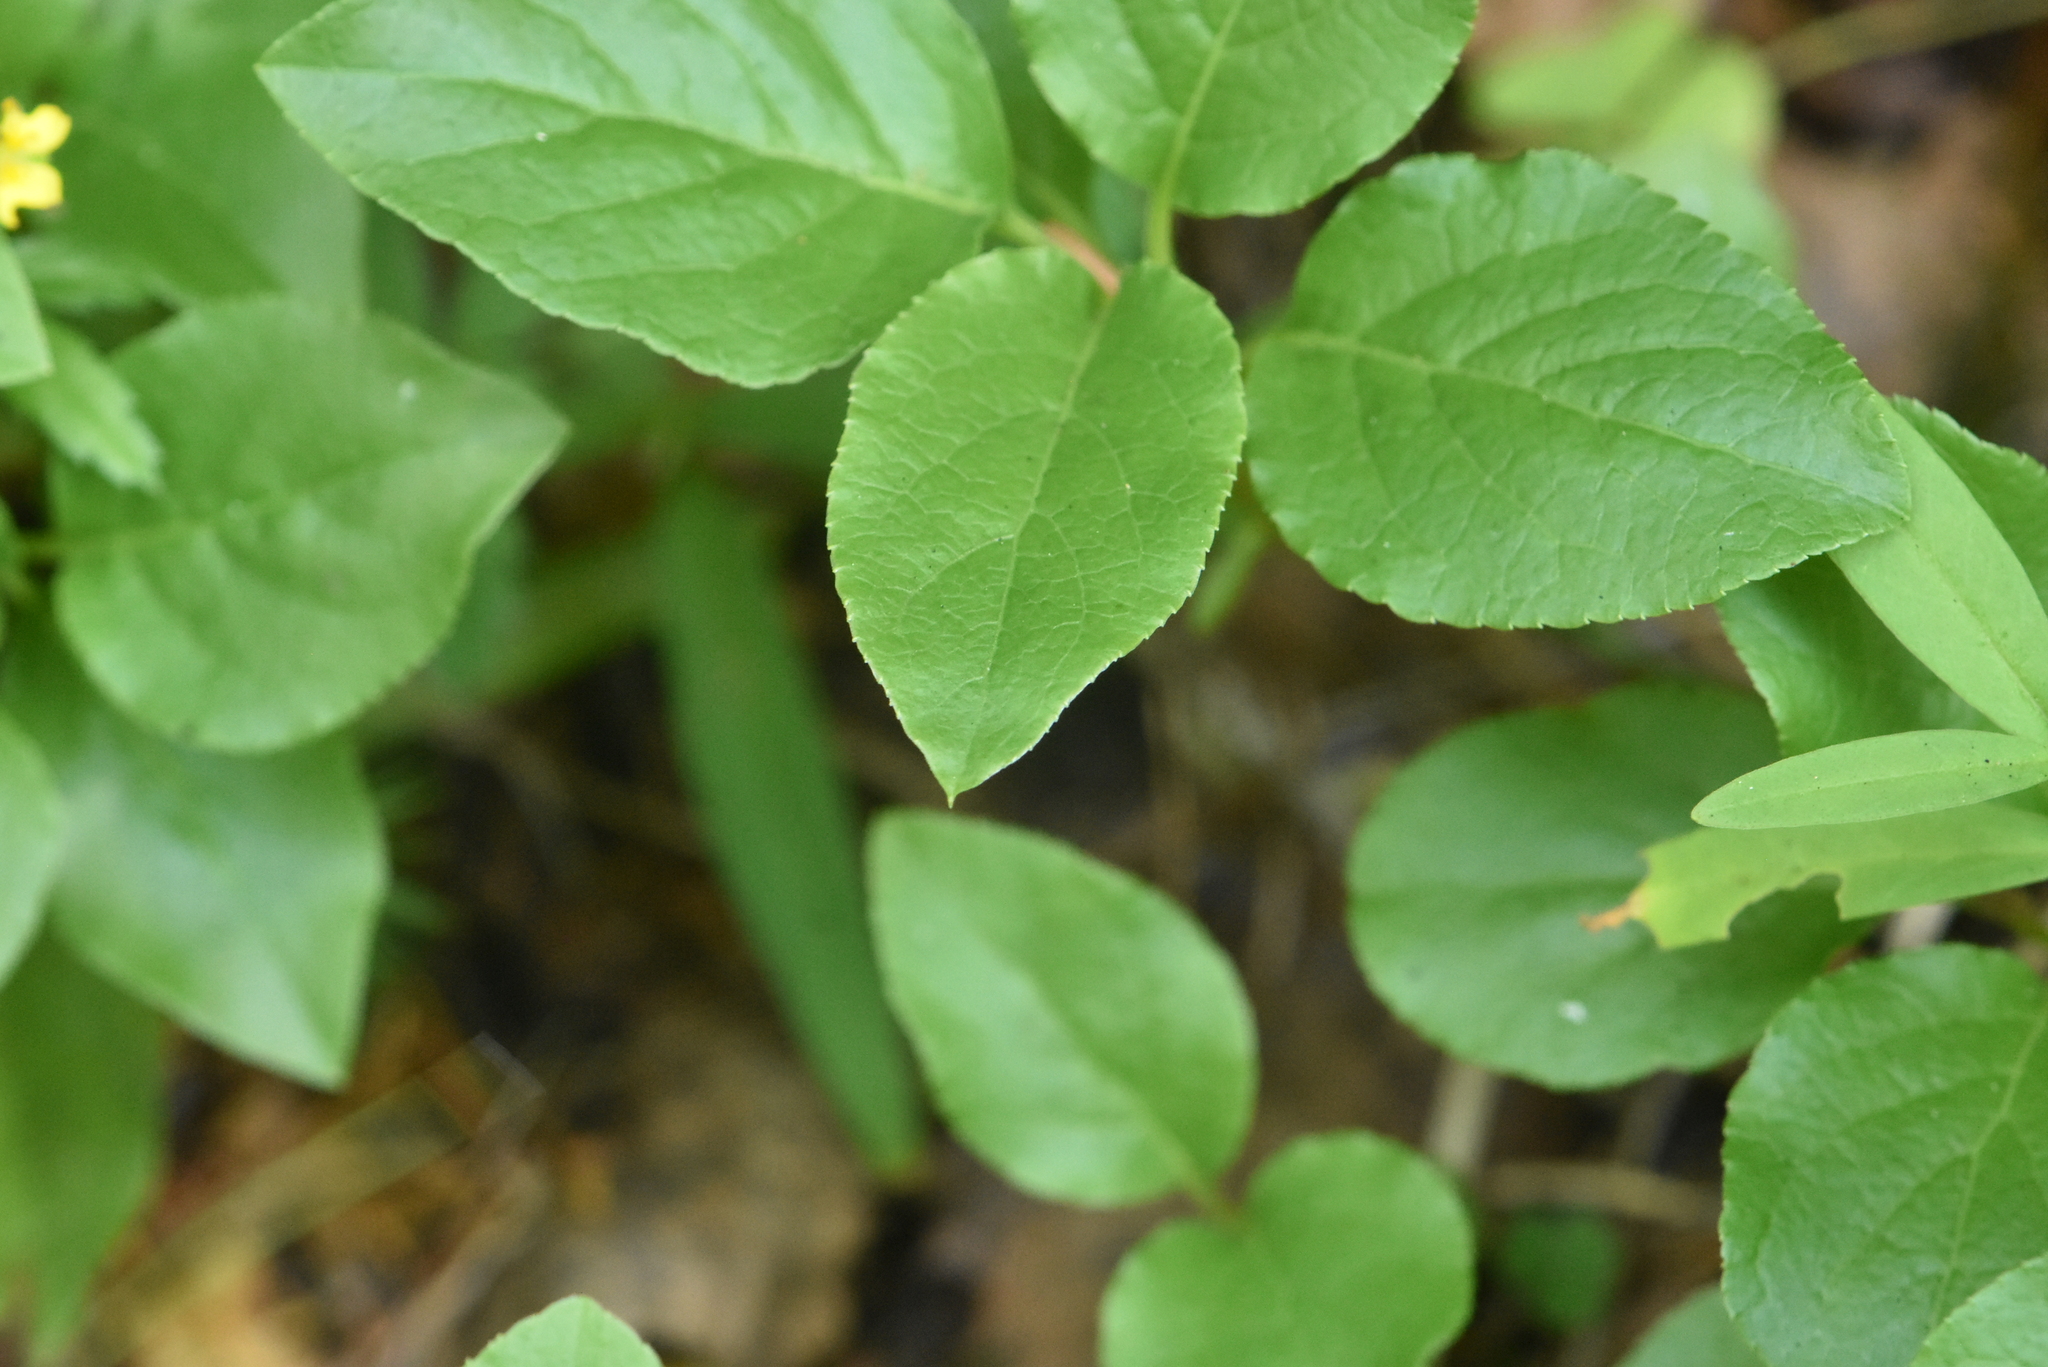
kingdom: Plantae
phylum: Tracheophyta
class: Magnoliopsida
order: Ericales
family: Ericaceae
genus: Orthilia
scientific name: Orthilia secunda
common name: One-sided orthilia
